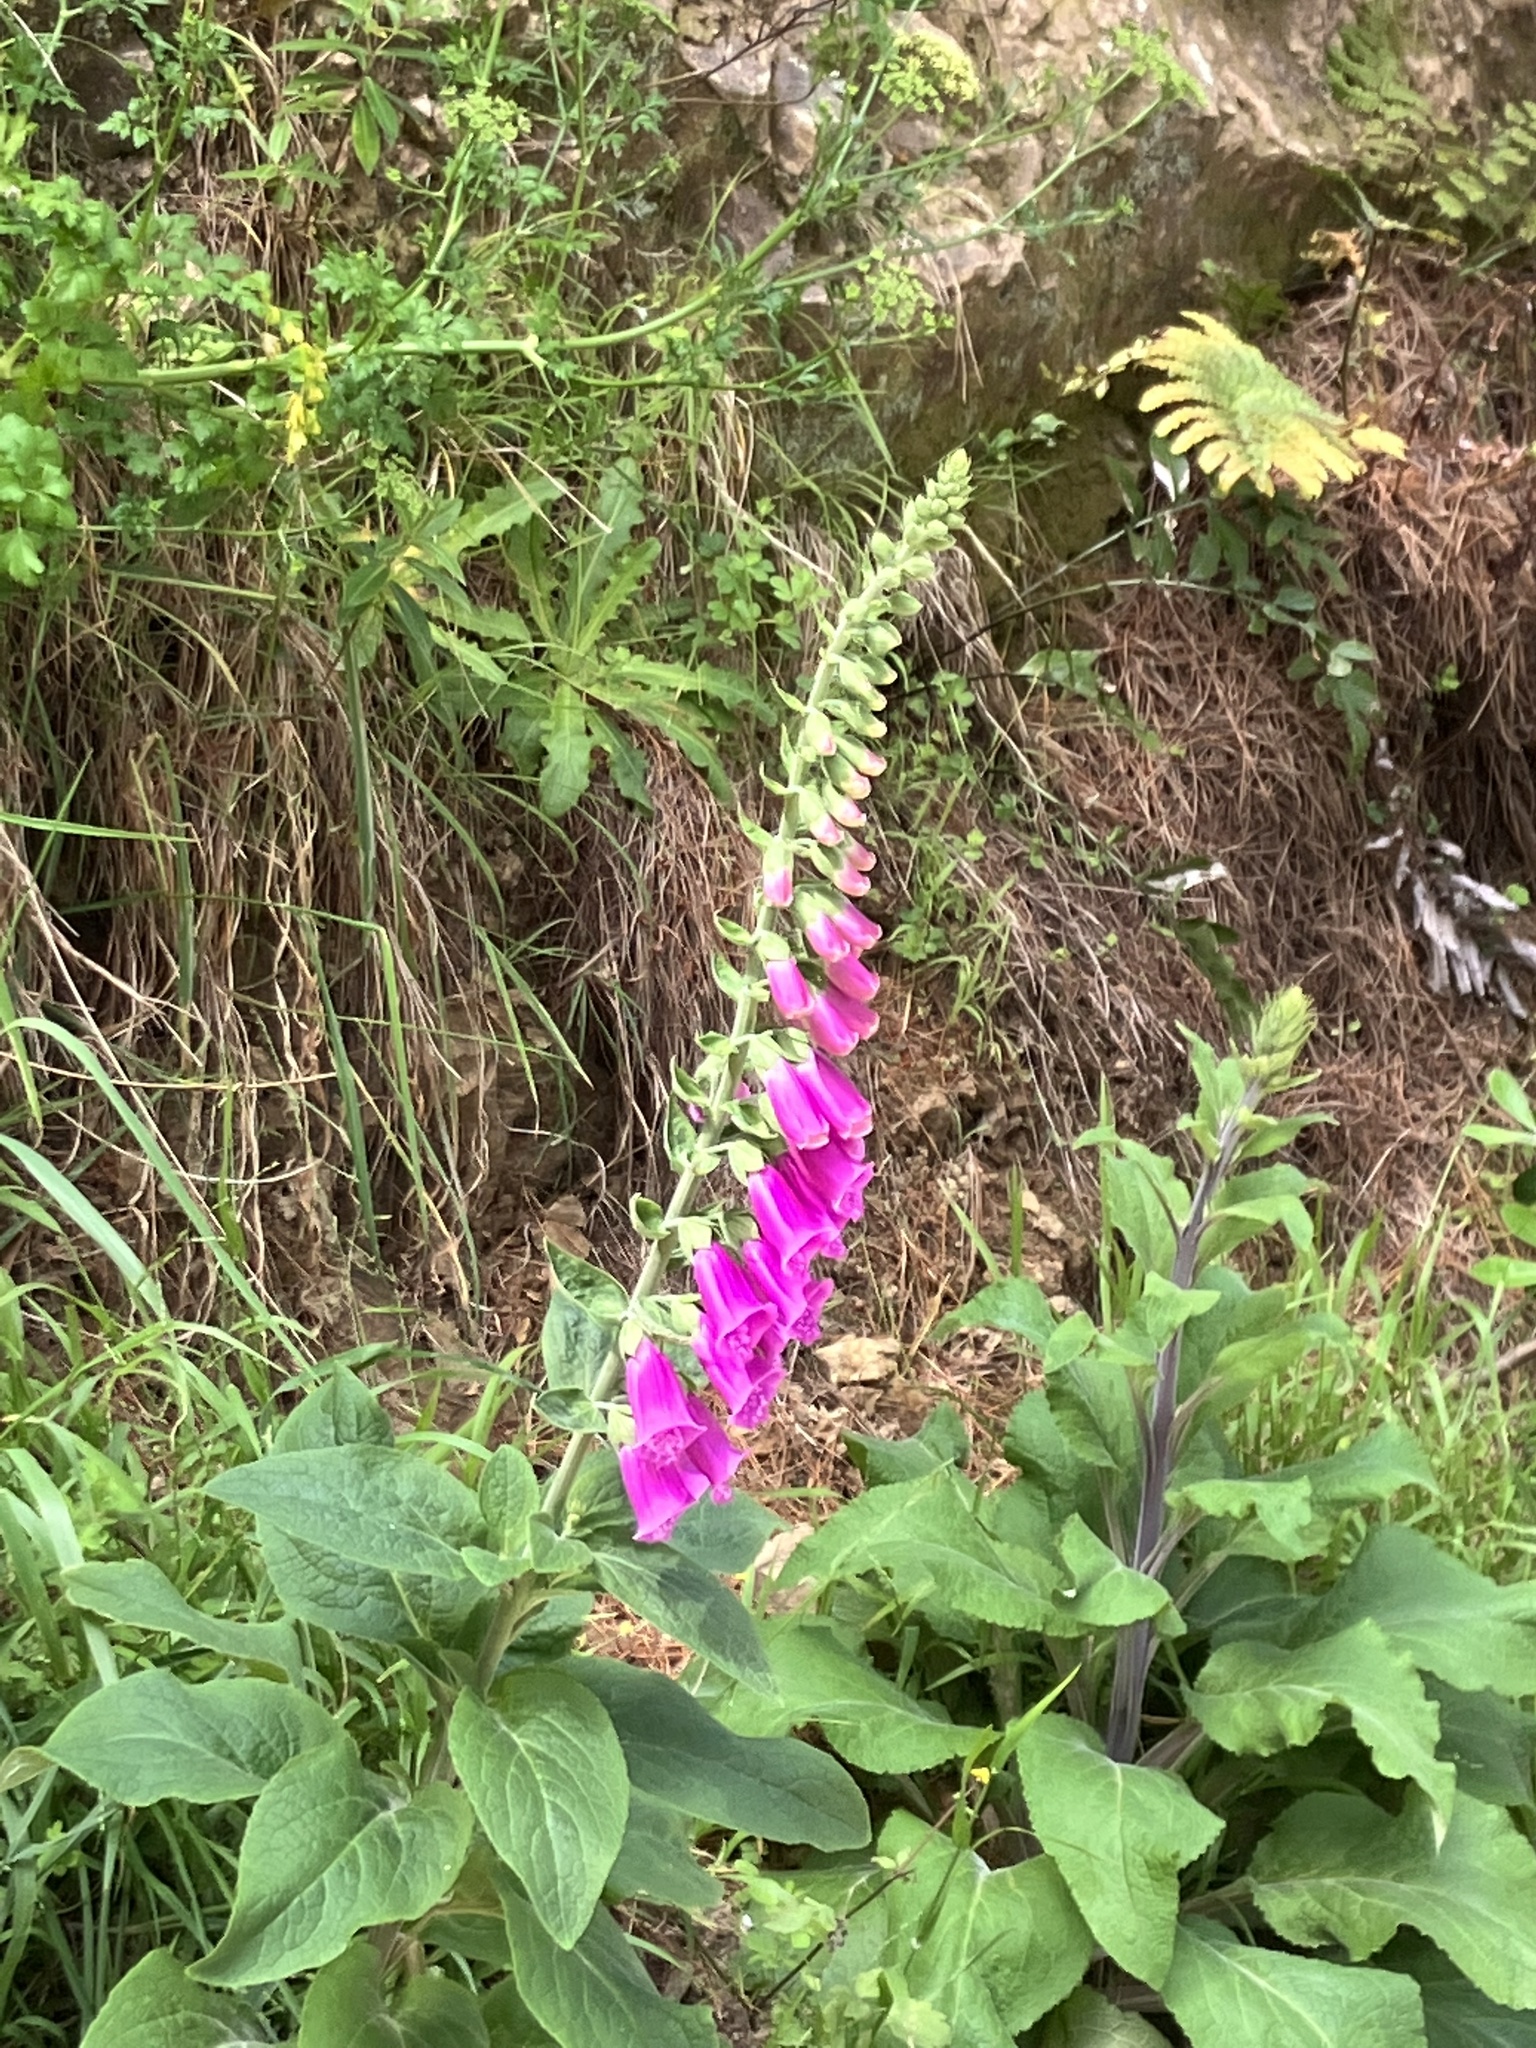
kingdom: Plantae
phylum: Tracheophyta
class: Magnoliopsida
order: Lamiales
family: Plantaginaceae
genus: Digitalis
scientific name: Digitalis purpurea
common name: Foxglove
